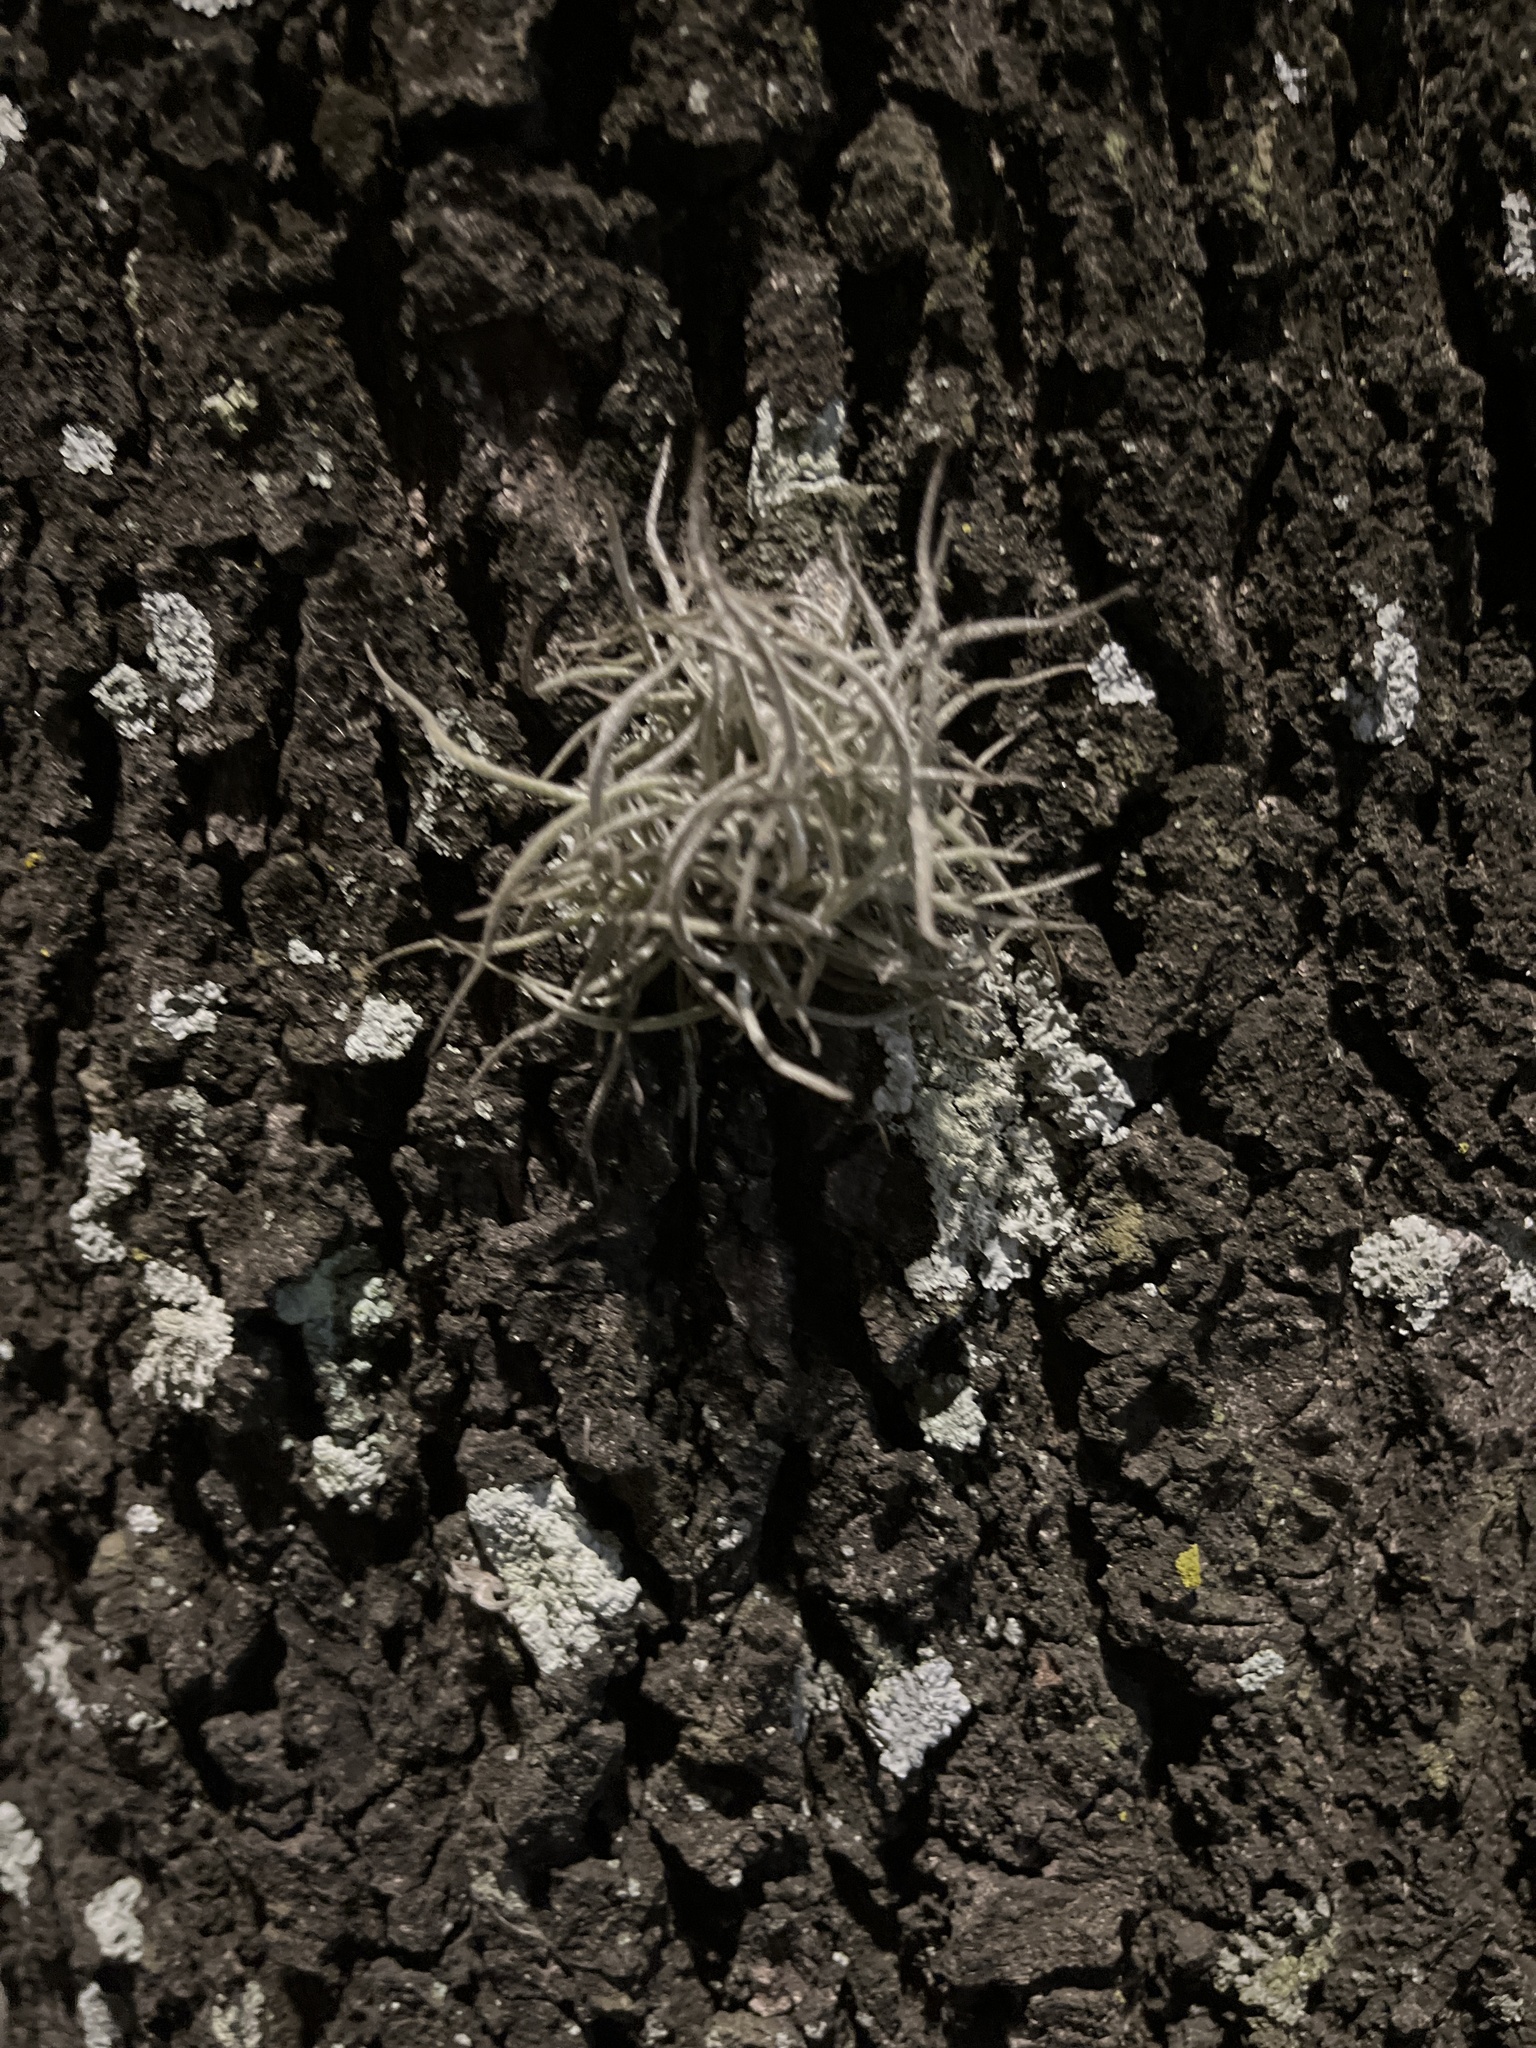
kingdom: Plantae
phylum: Tracheophyta
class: Liliopsida
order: Poales
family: Bromeliaceae
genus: Tillandsia
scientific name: Tillandsia recurvata
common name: Small ballmoss
